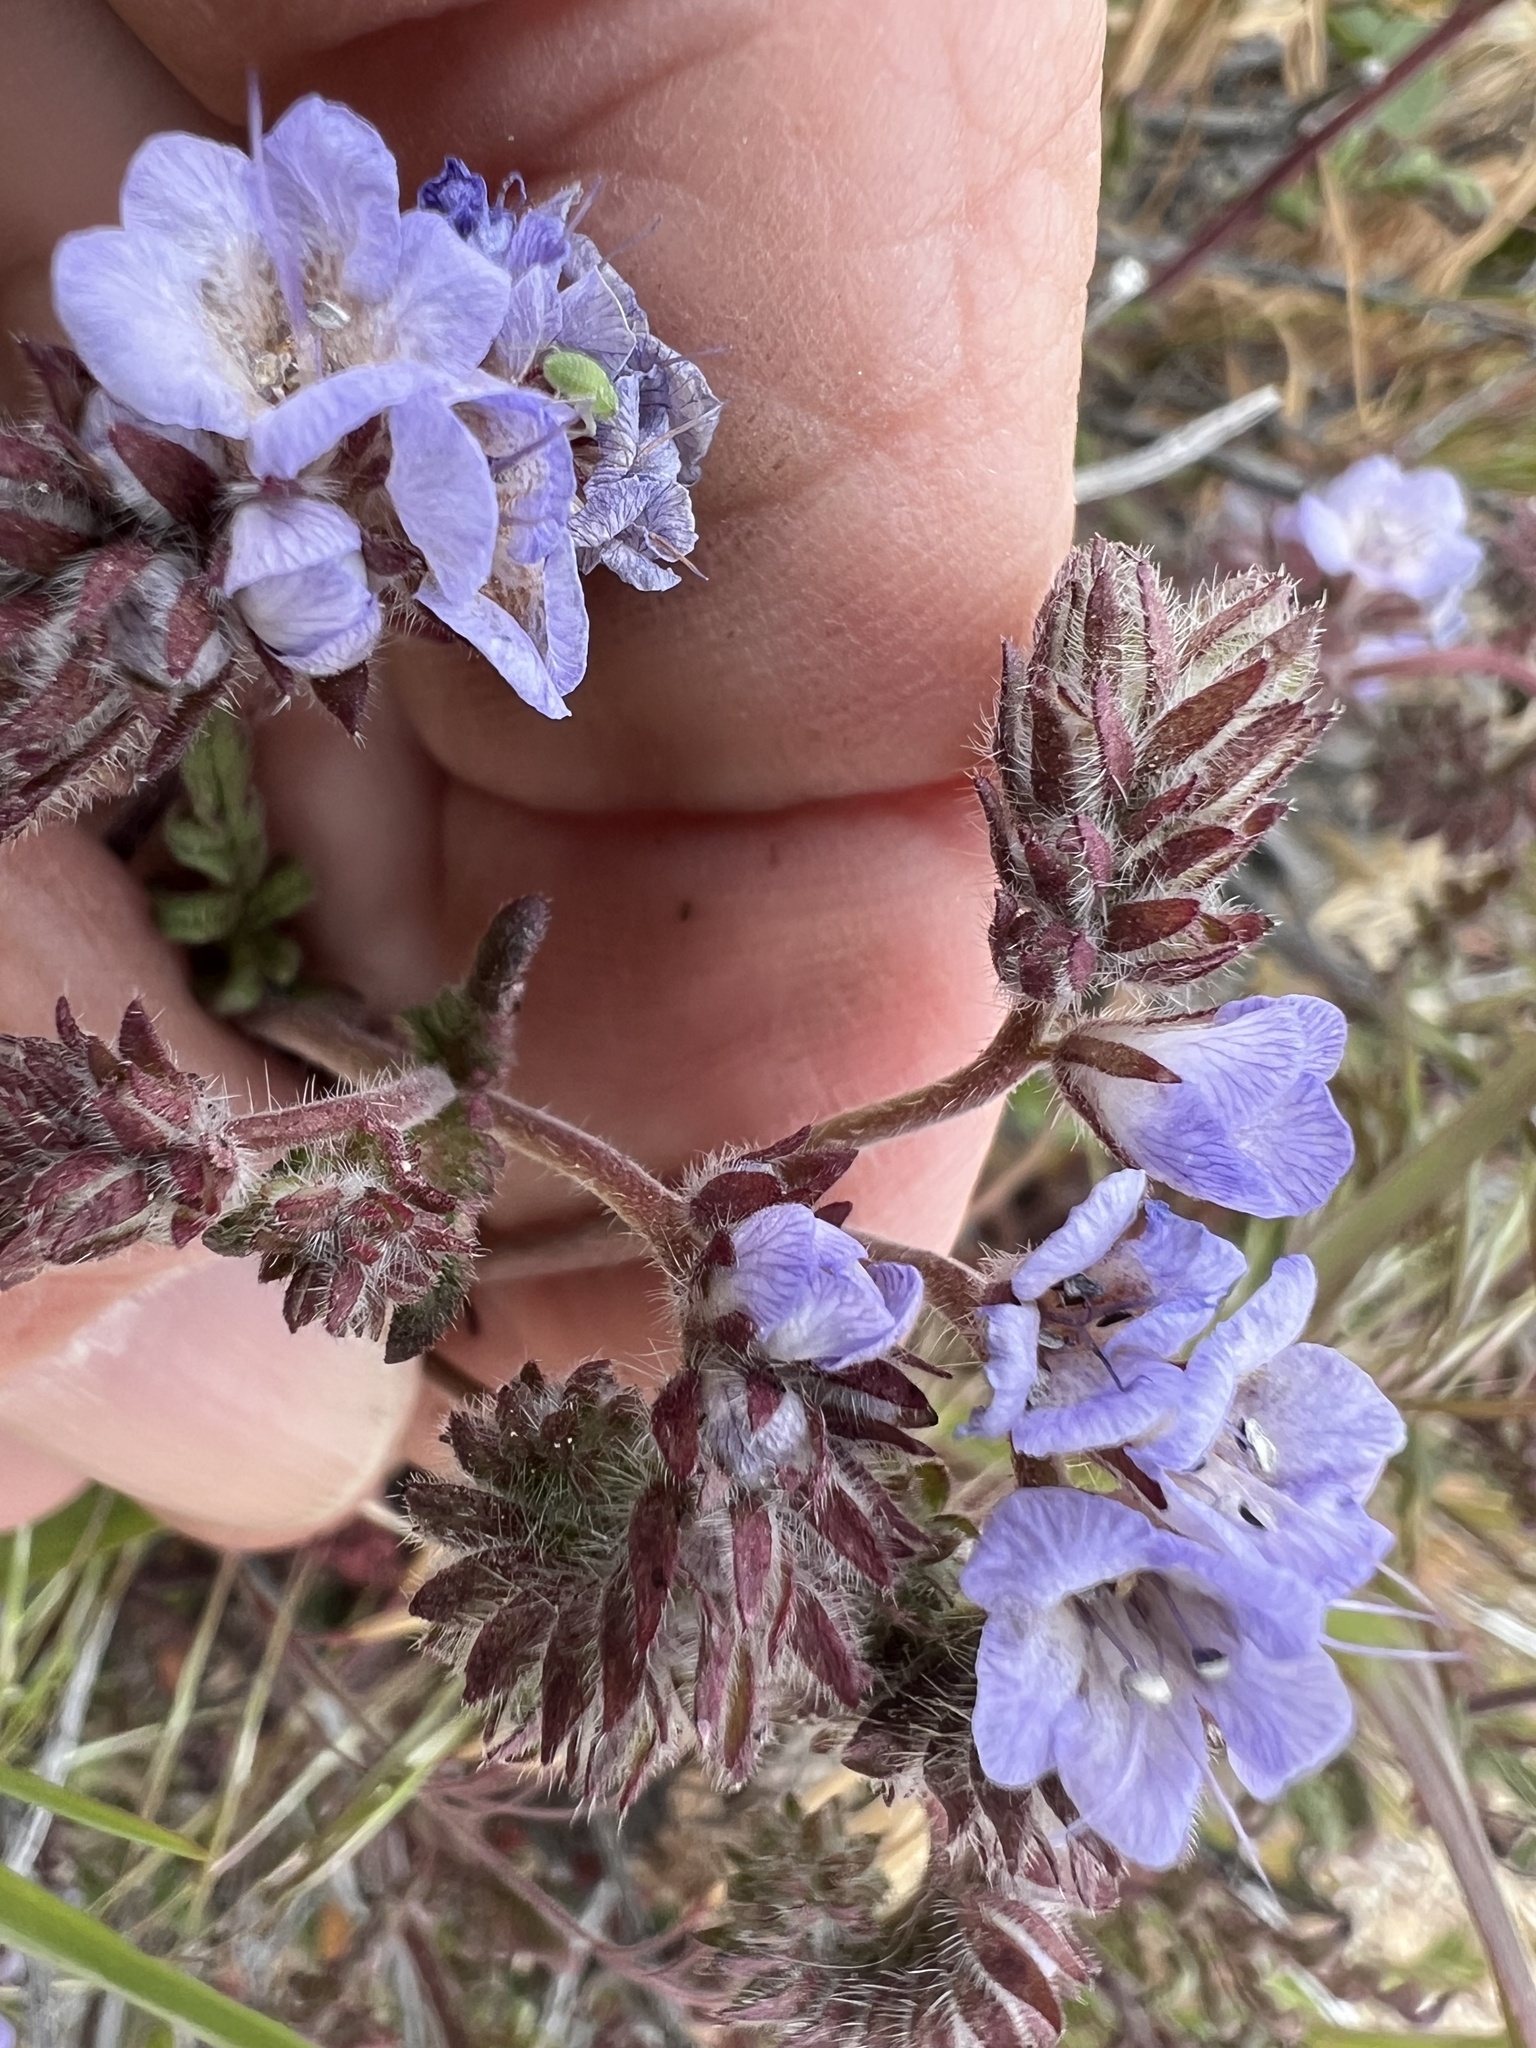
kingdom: Plantae
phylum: Tracheophyta
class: Magnoliopsida
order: Boraginales
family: Hydrophyllaceae
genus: Phacelia
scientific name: Phacelia distans
